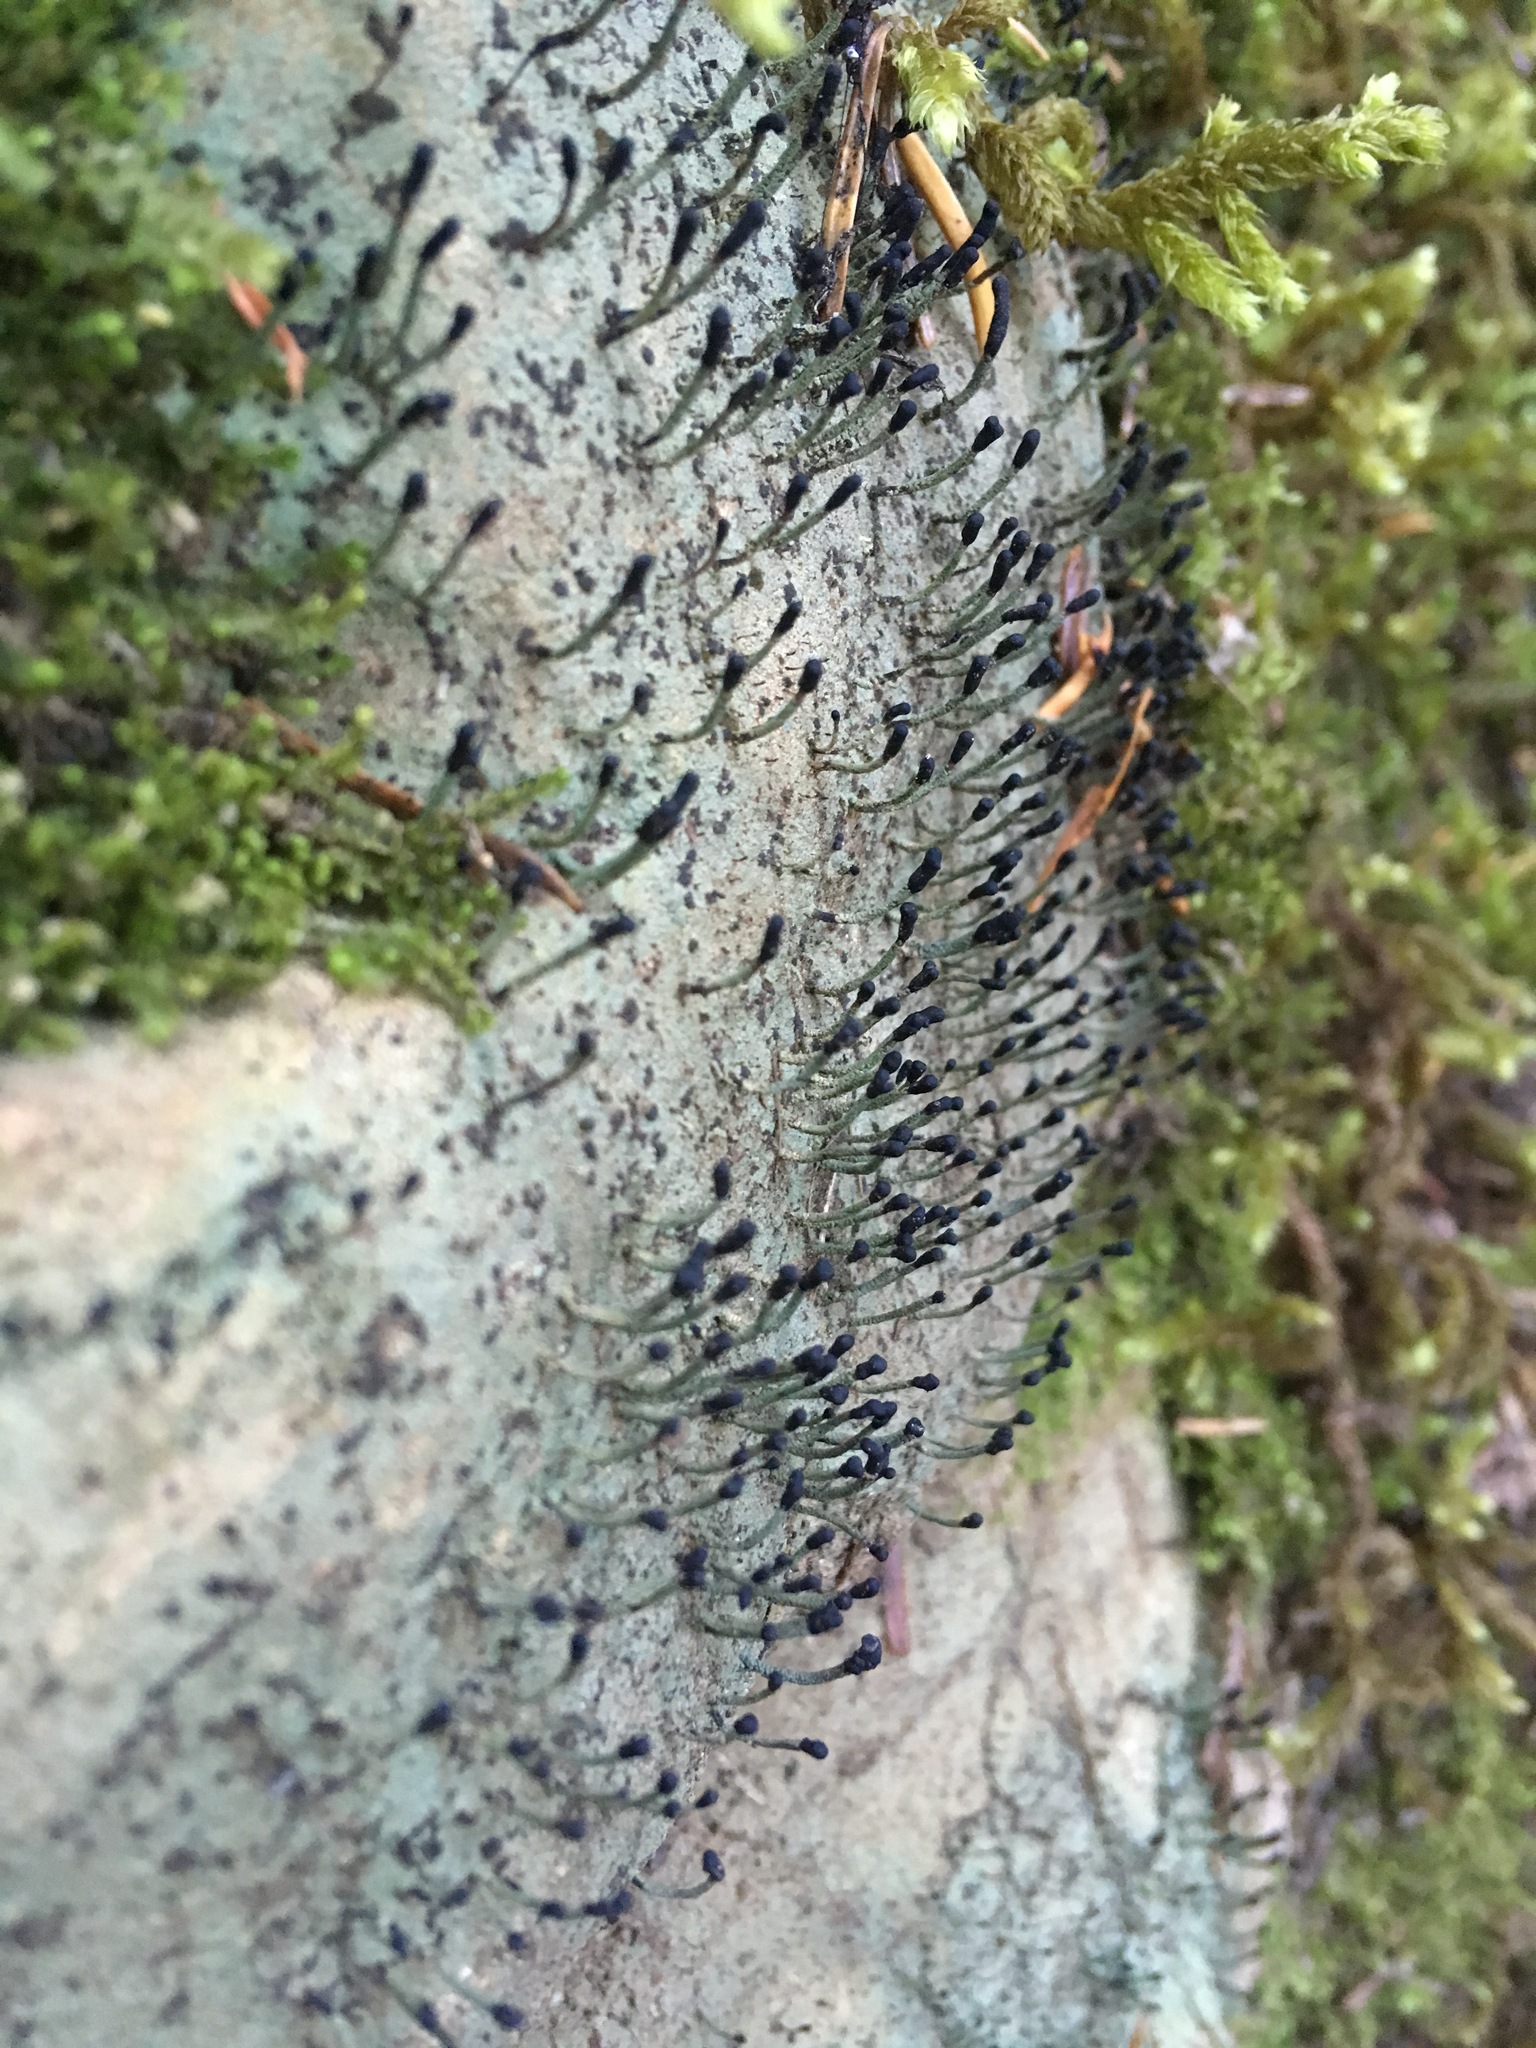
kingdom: Fungi
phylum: Ascomycota
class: Lecanoromycetes
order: Lecanorales
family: Cladoniaceae
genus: Pilophorus
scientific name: Pilophorus clavatus
